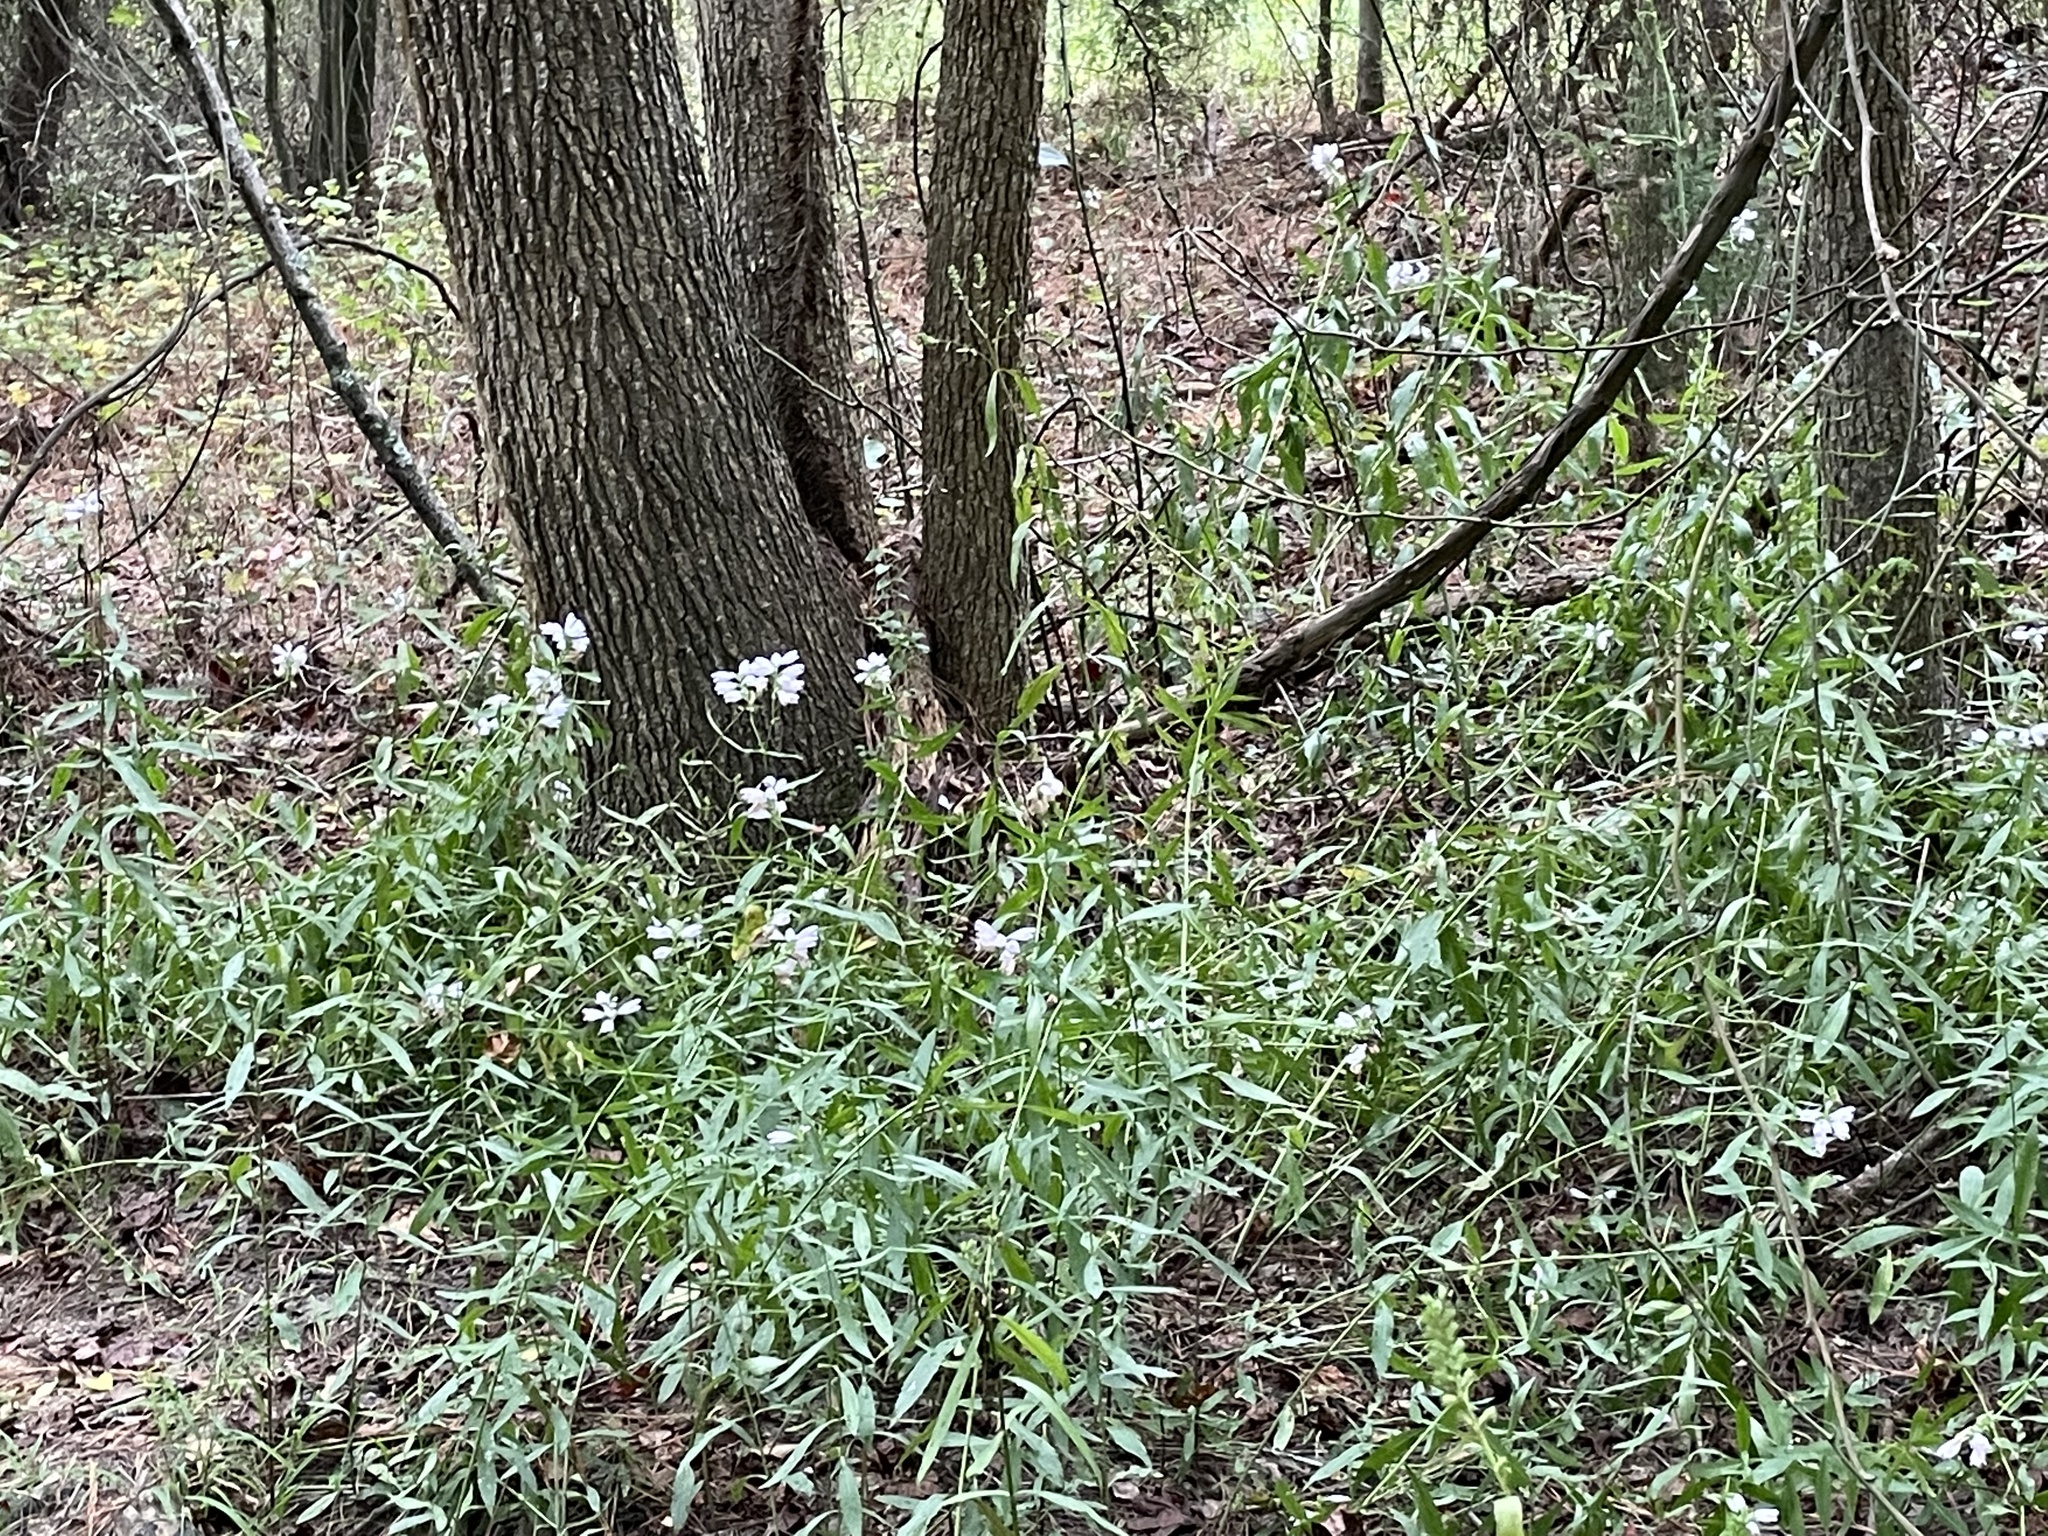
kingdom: Plantae
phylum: Tracheophyta
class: Magnoliopsida
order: Lamiales
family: Lamiaceae
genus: Physostegia
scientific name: Physostegia virginiana
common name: Obedient-plant
